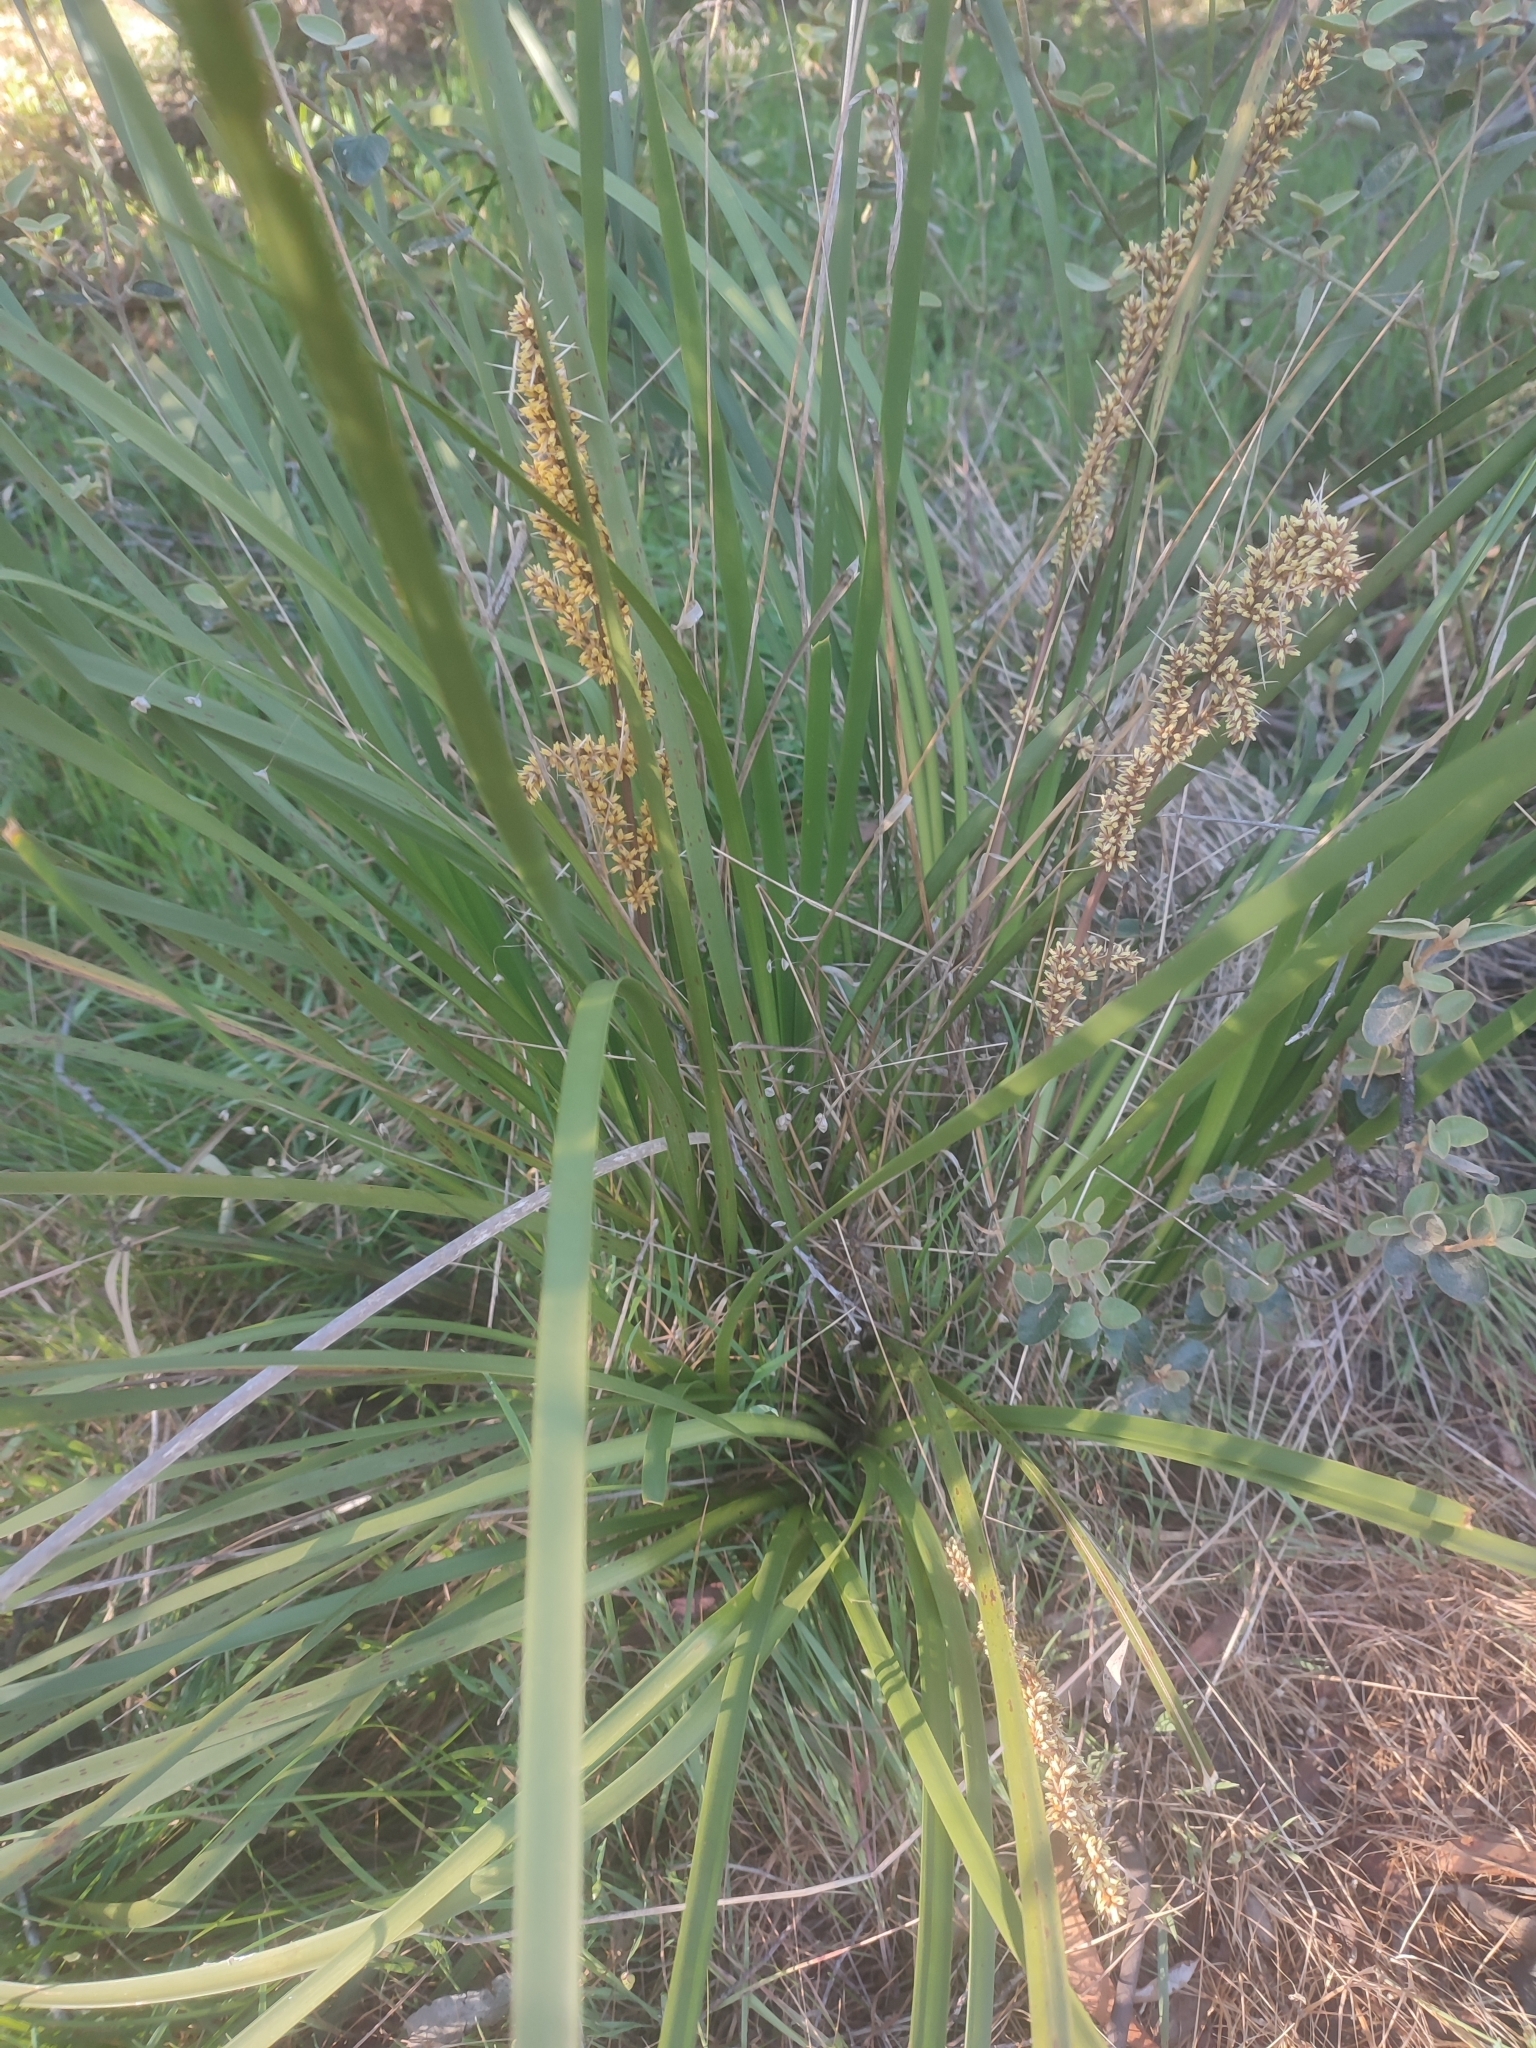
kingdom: Plantae
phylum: Tracheophyta
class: Liliopsida
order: Asparagales
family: Asparagaceae
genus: Lomandra
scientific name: Lomandra longifolia
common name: Longleaf mat-rush
